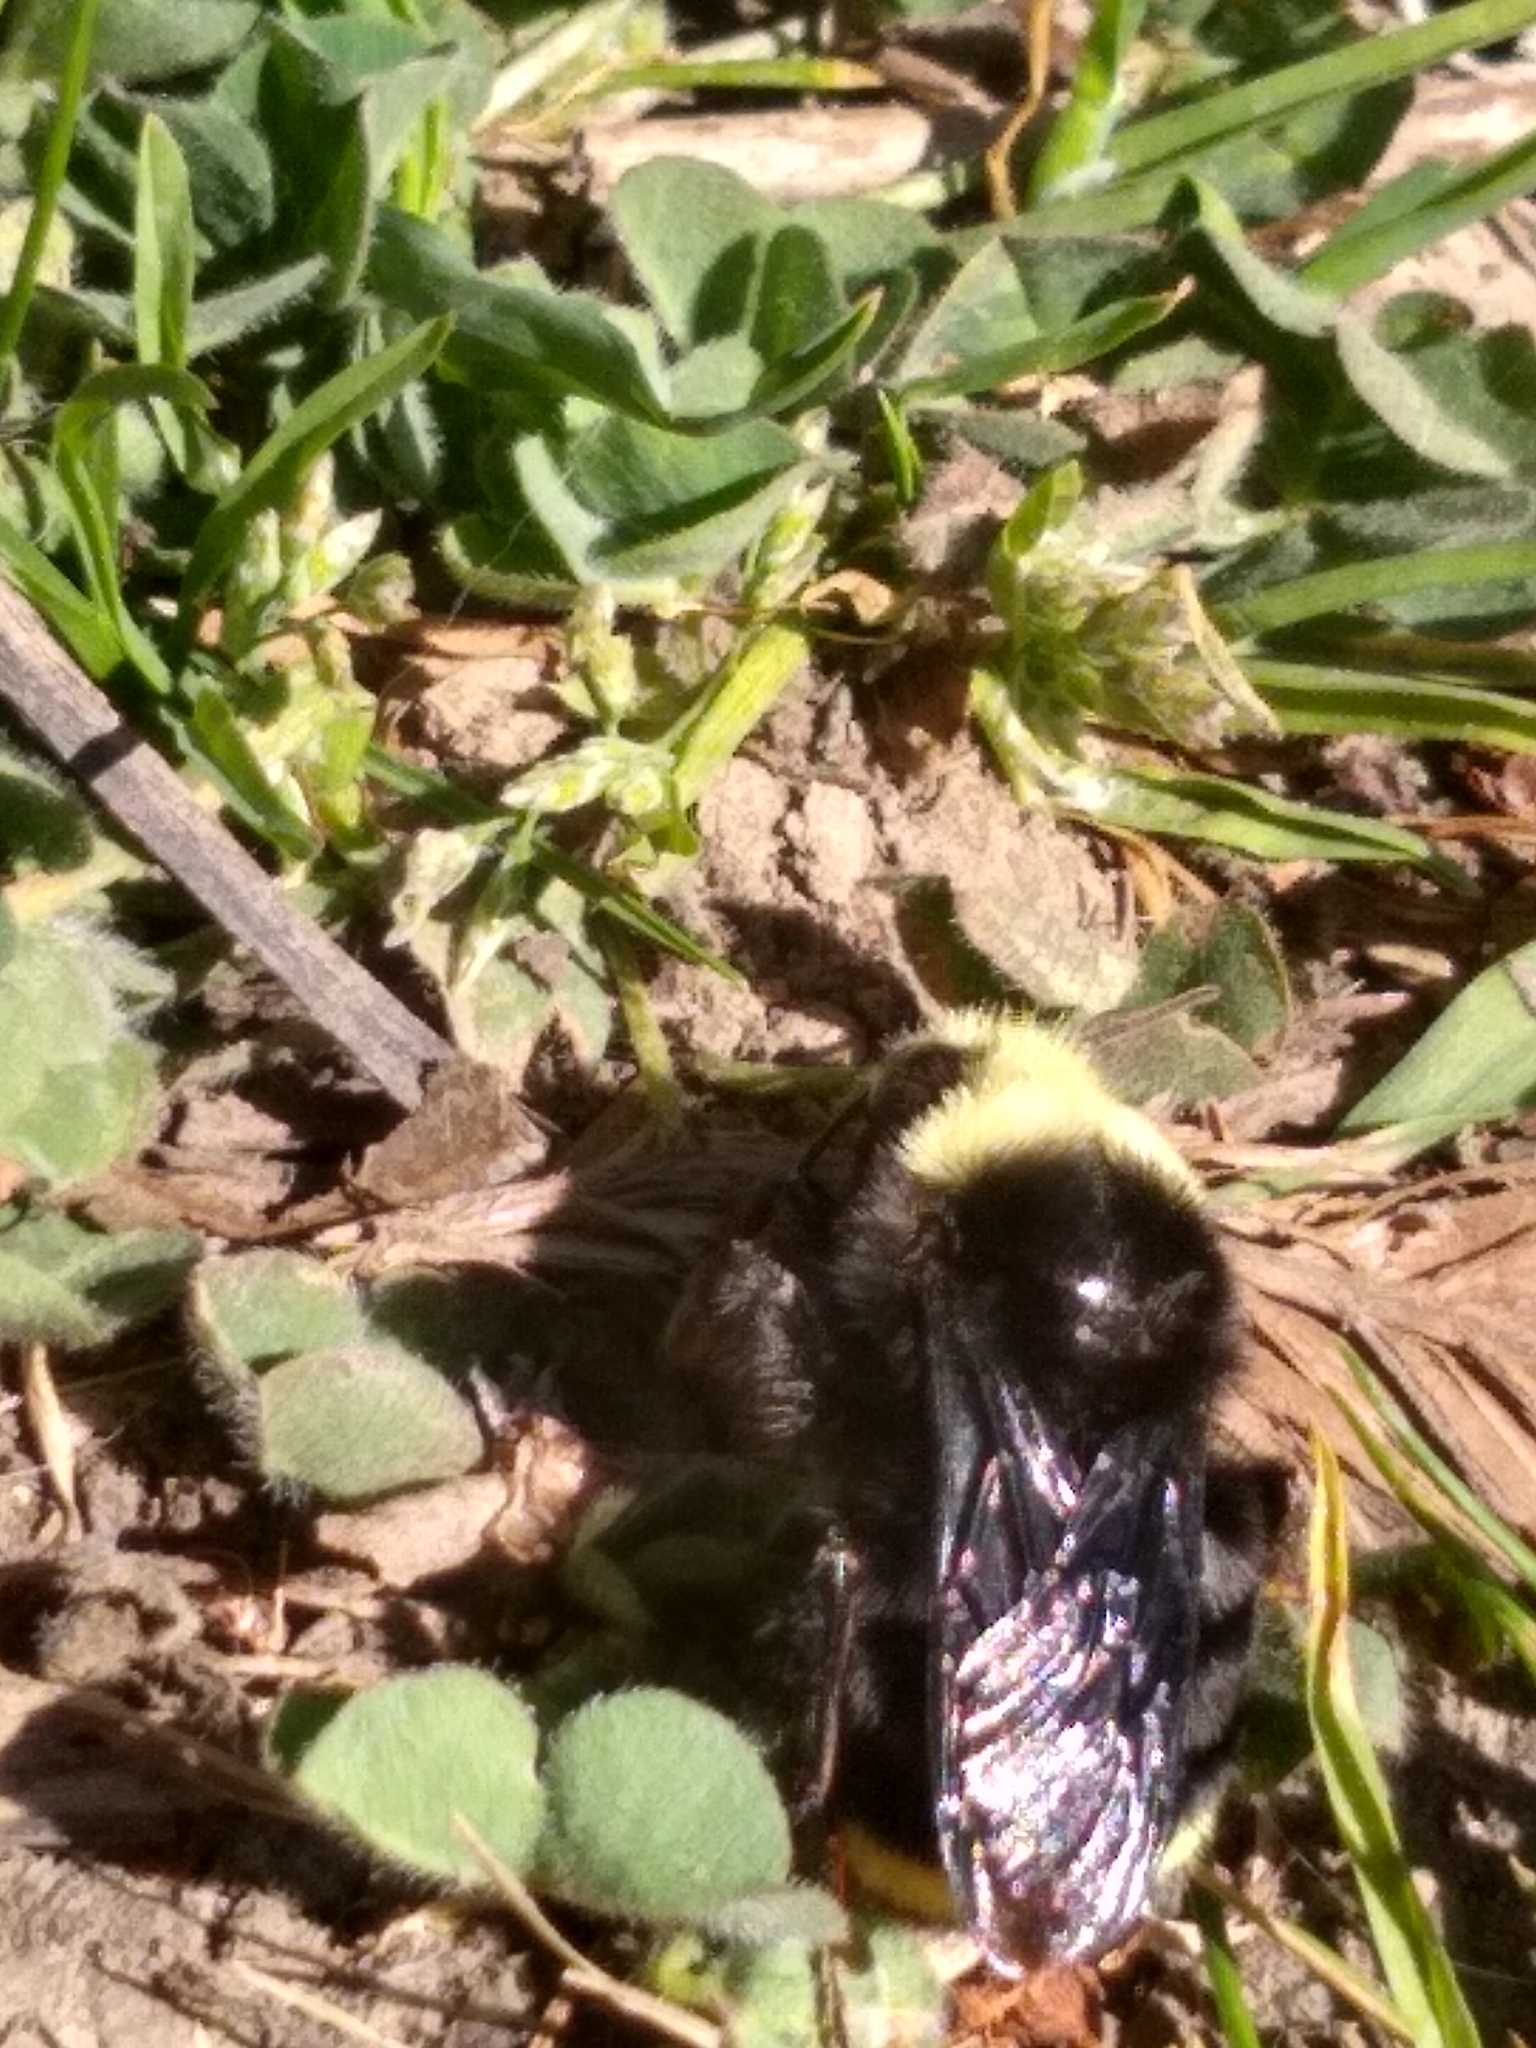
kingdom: Animalia
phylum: Arthropoda
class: Insecta
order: Hymenoptera
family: Apidae
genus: Bombus
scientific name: Bombus vosnesenskii
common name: Vosnesensky bumble bee
